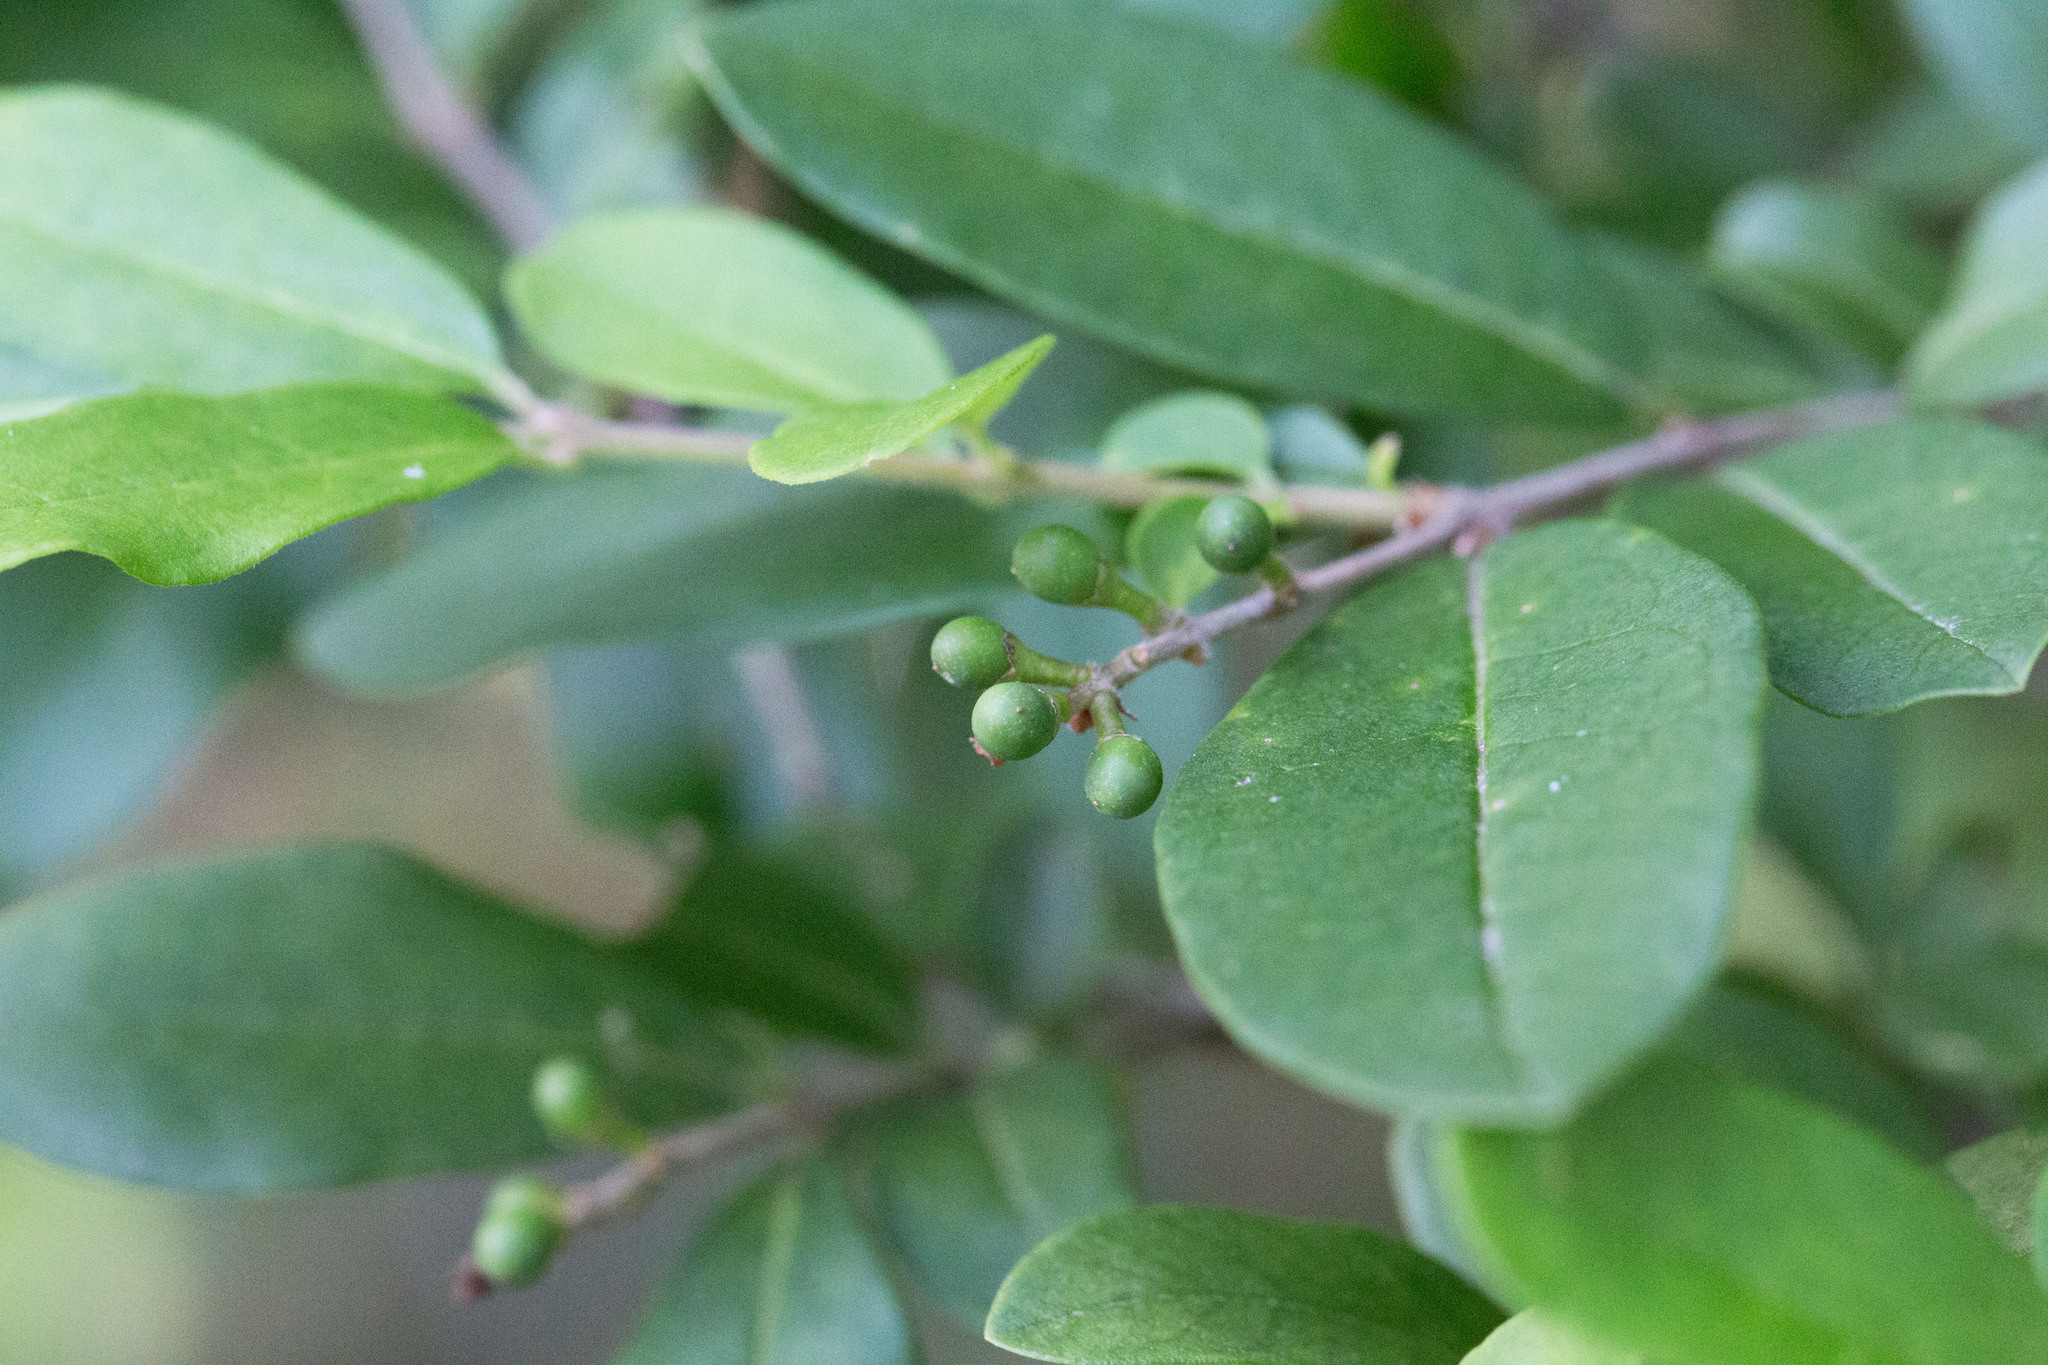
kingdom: Plantae
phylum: Tracheophyta
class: Magnoliopsida
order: Lamiales
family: Oleaceae
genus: Ligustrum
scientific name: Ligustrum obtusifolium
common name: Border privet
